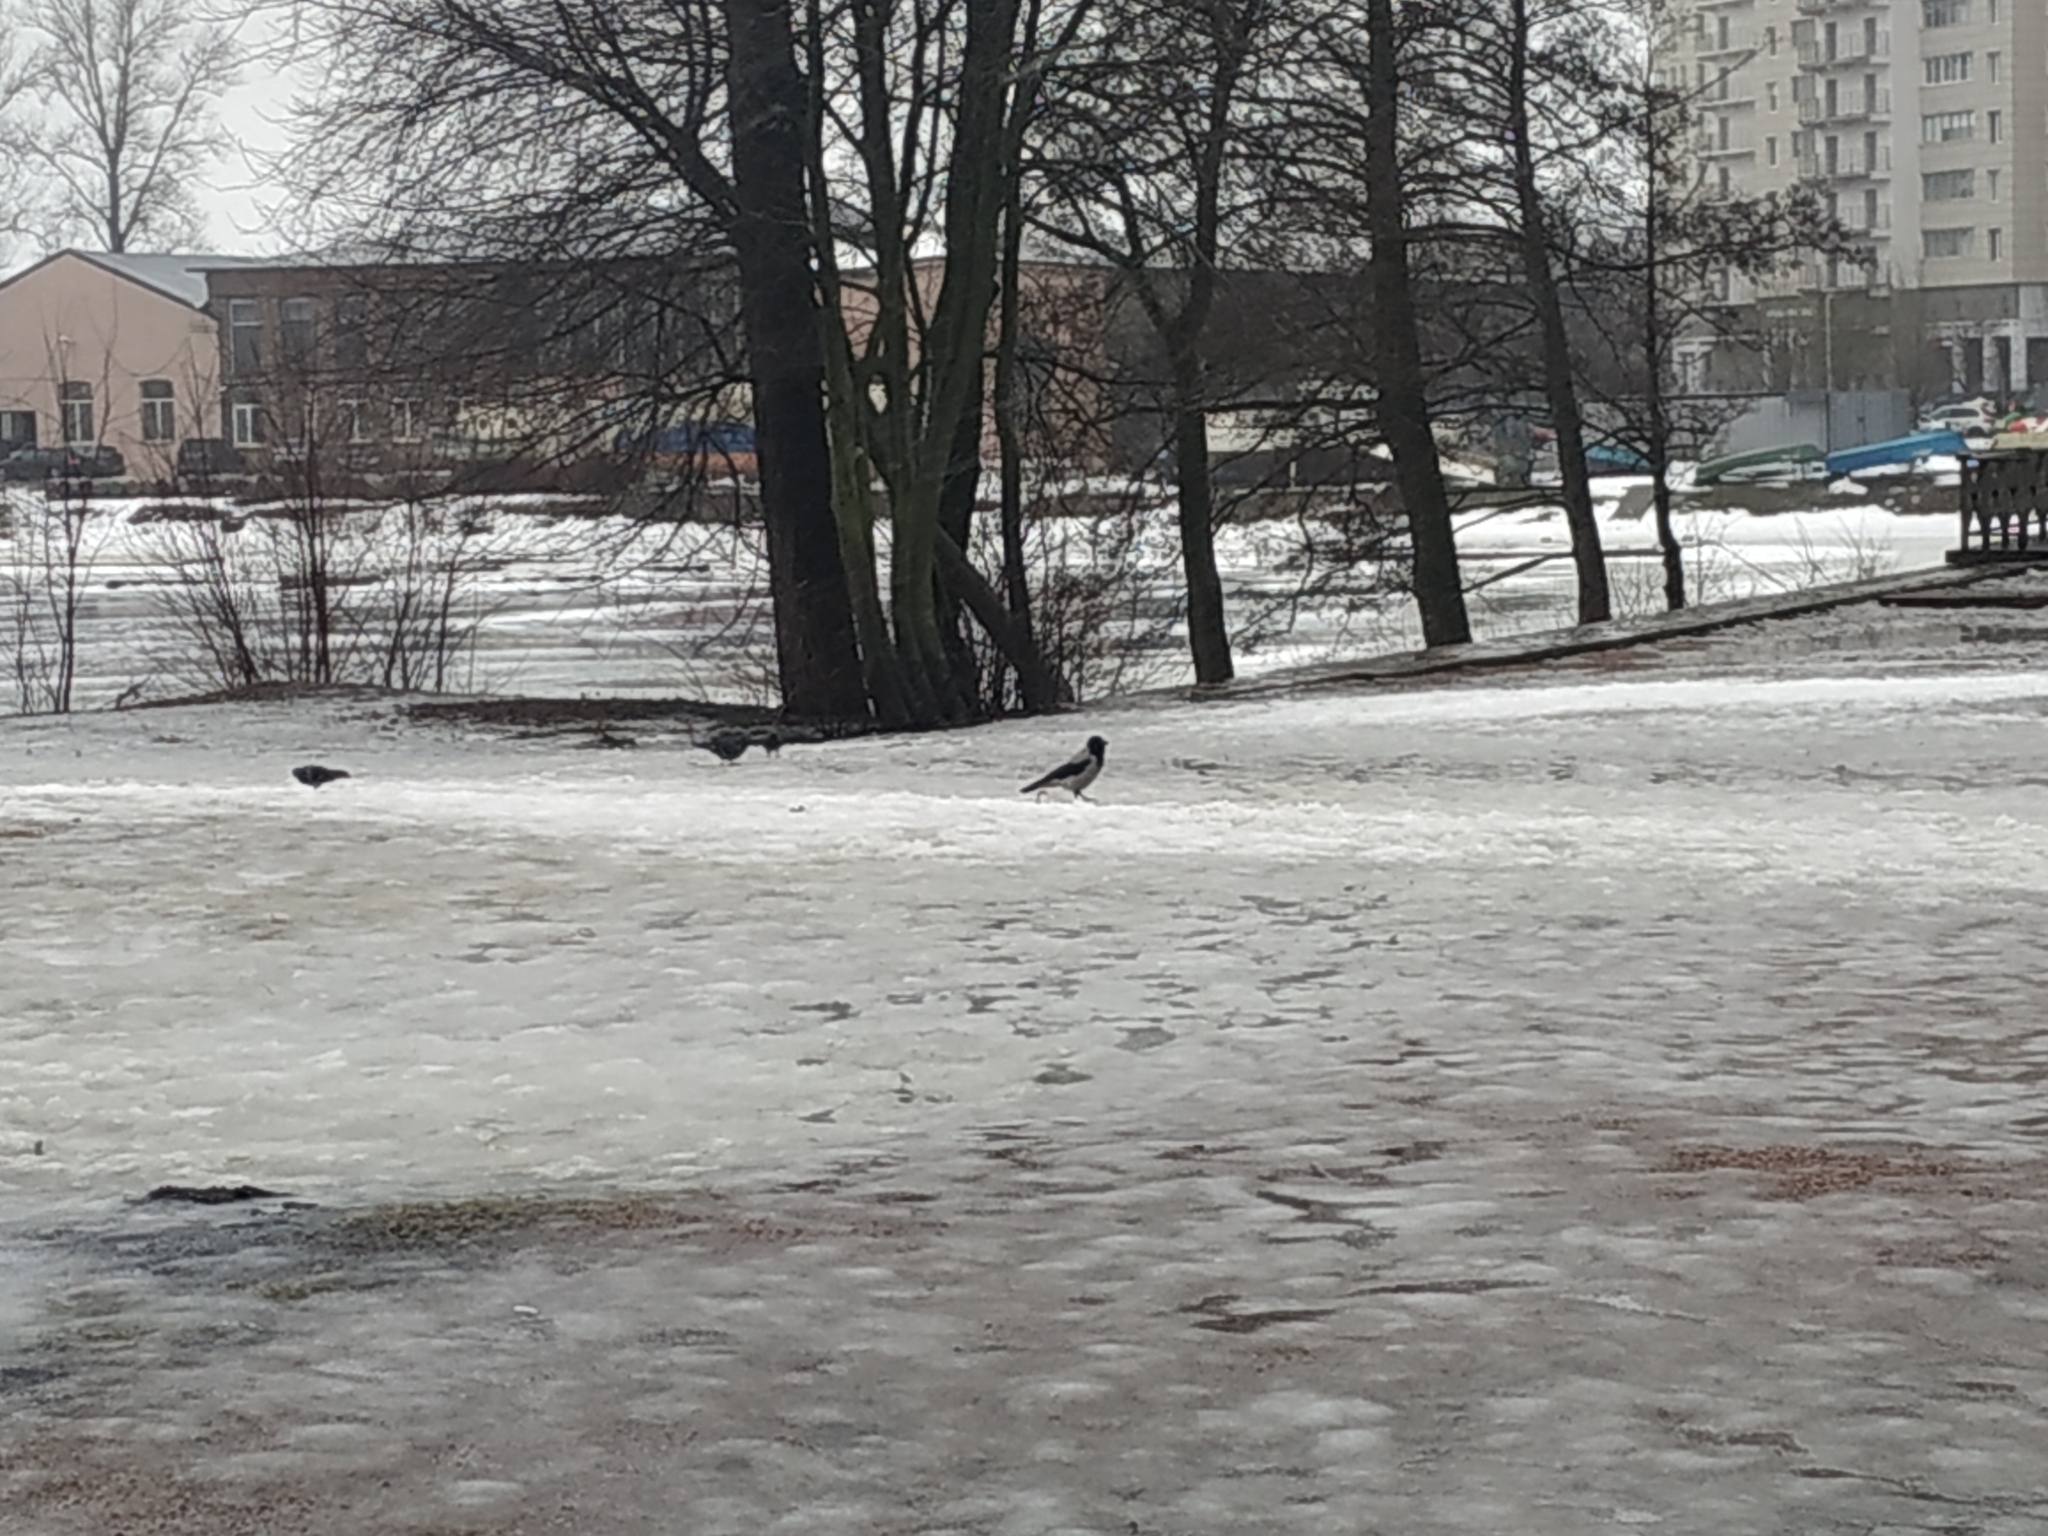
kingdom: Animalia
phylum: Chordata
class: Aves
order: Passeriformes
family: Corvidae
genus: Corvus
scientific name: Corvus cornix
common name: Hooded crow
